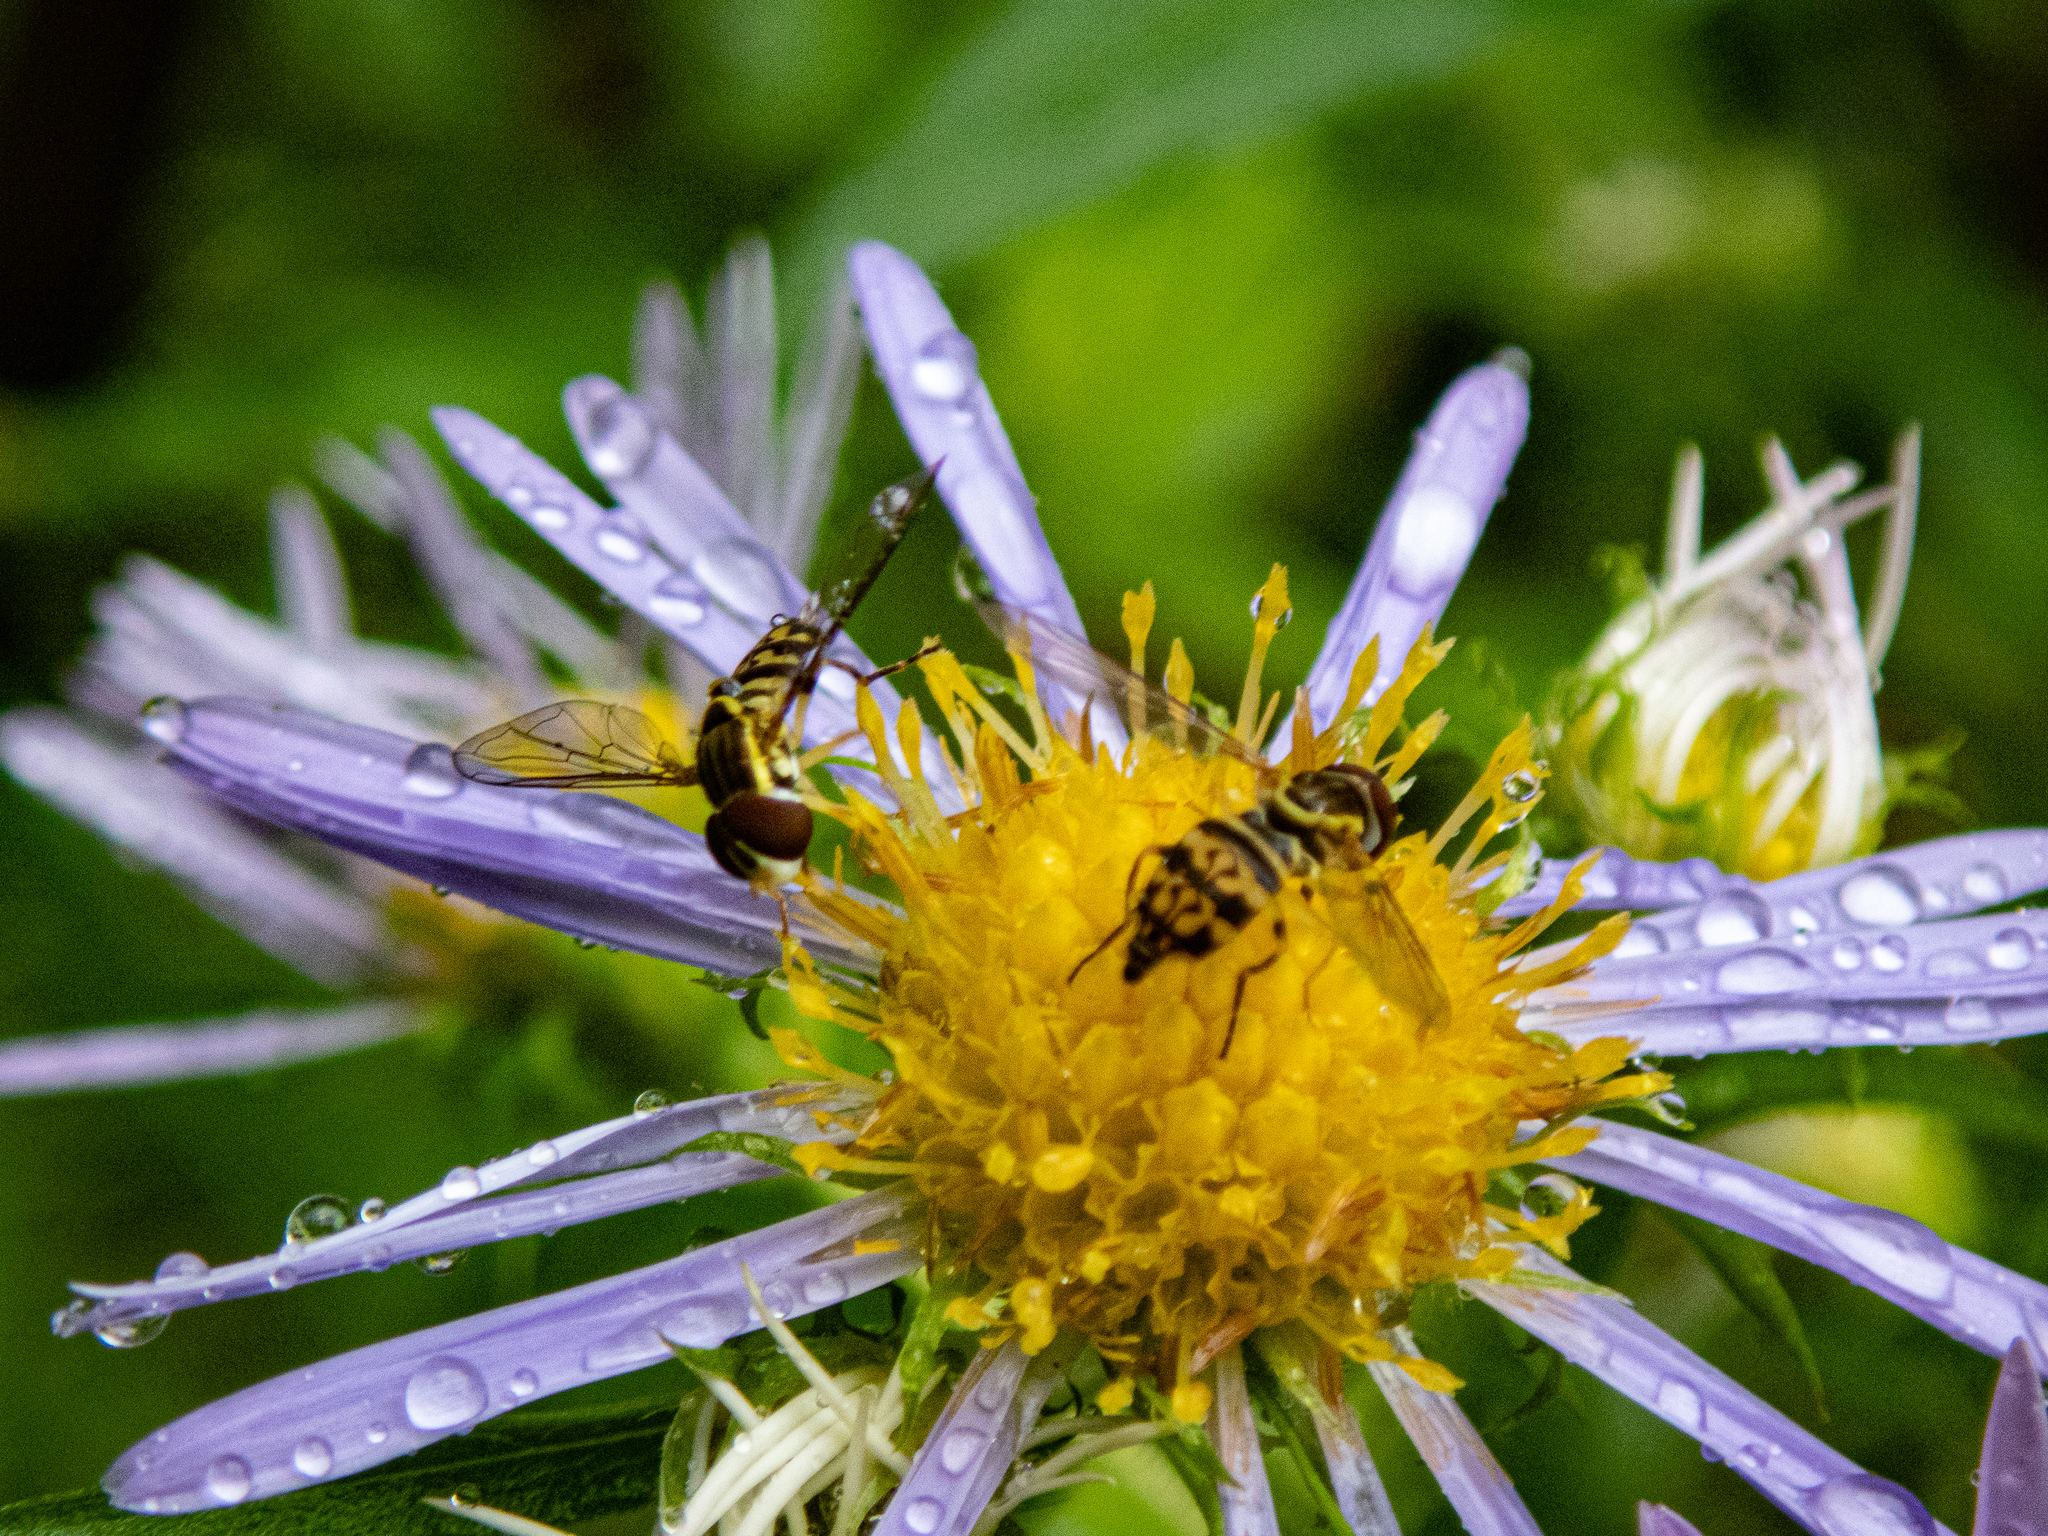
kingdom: Animalia
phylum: Arthropoda
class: Insecta
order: Diptera
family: Syrphidae
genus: Toxomerus
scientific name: Toxomerus geminatus
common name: Eastern calligrapher
